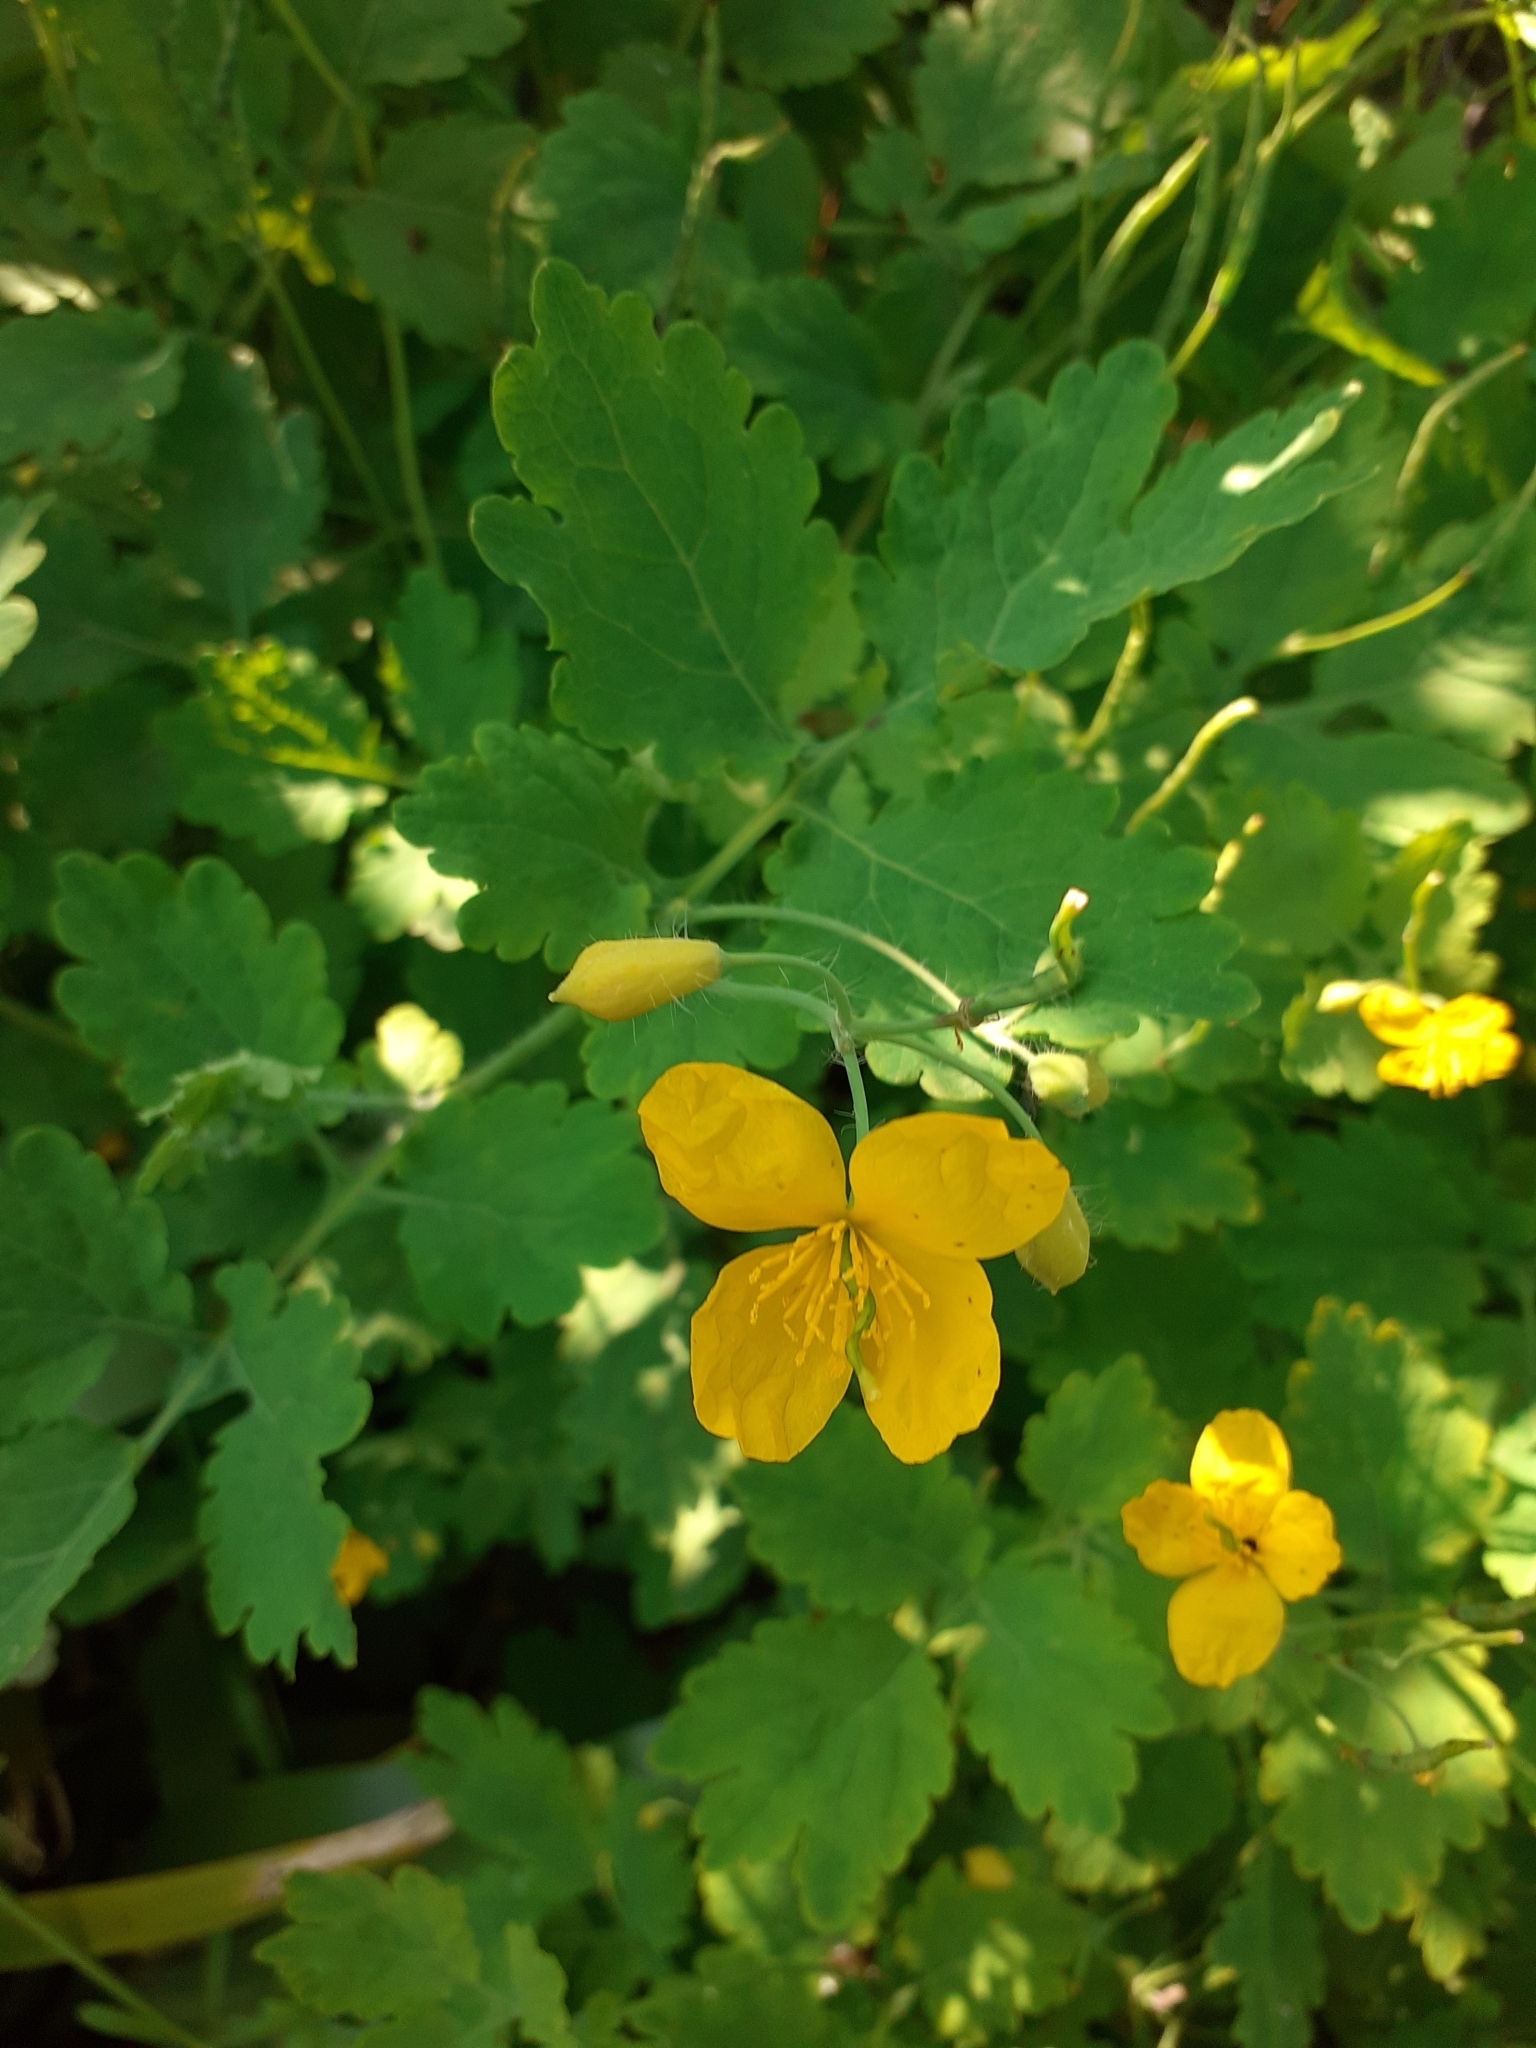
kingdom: Plantae
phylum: Tracheophyta
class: Magnoliopsida
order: Ranunculales
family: Papaveraceae
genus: Chelidonium
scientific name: Chelidonium majus
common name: Greater celandine
